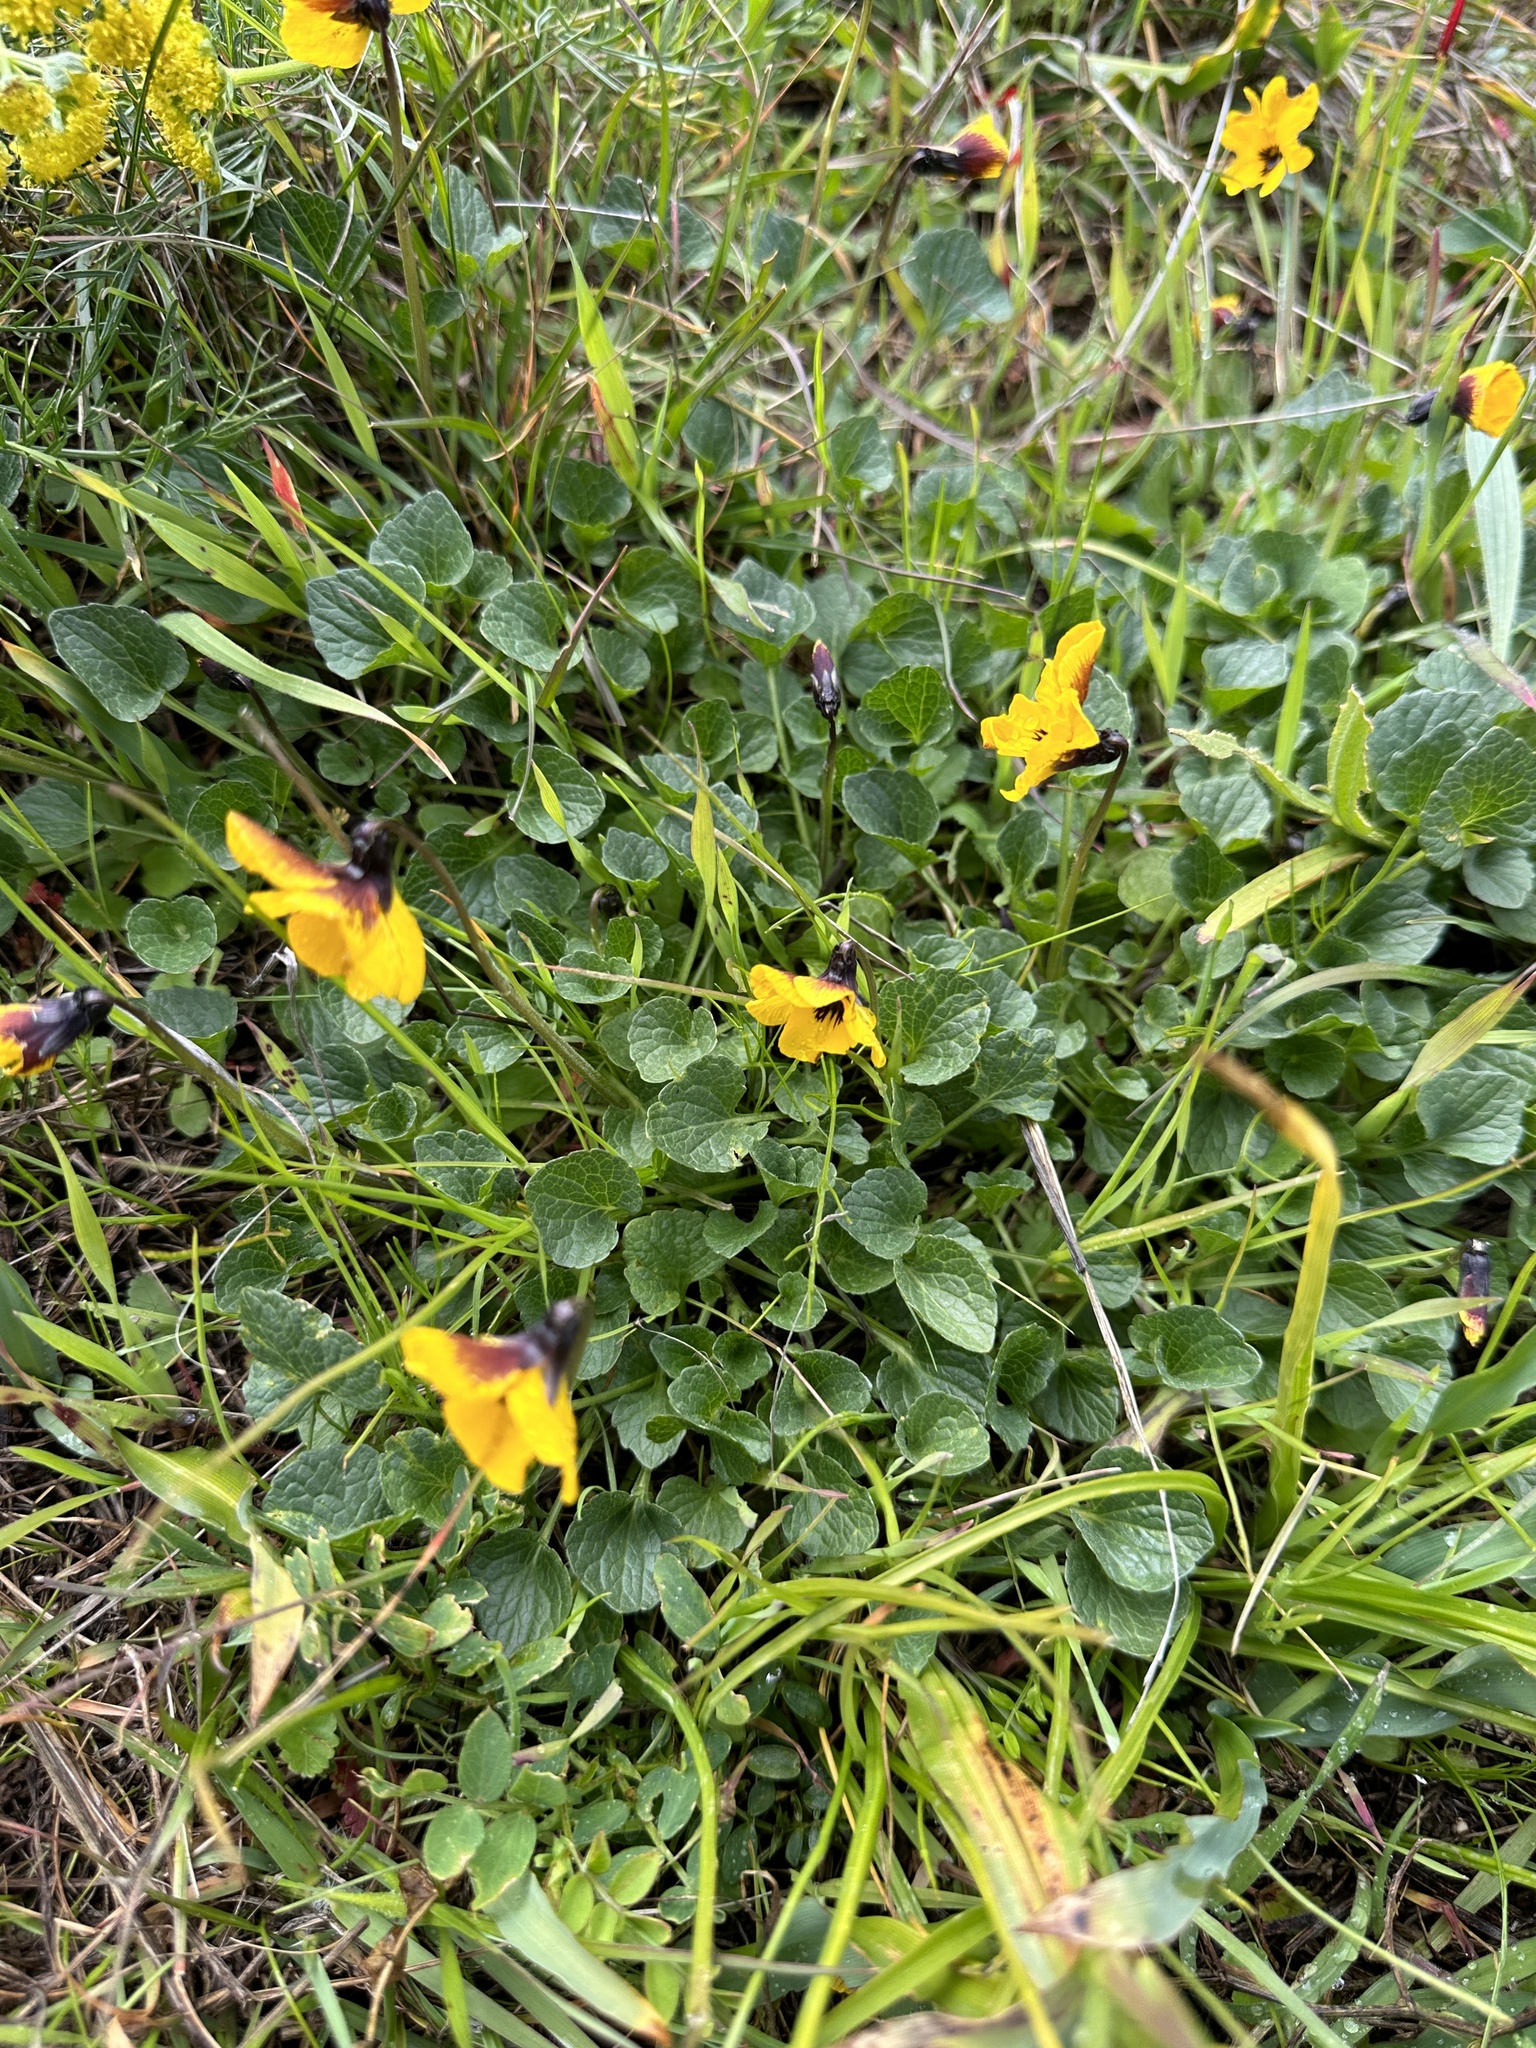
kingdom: Plantae
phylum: Tracheophyta
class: Magnoliopsida
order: Malpighiales
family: Violaceae
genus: Viola
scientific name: Viola pedunculata
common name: California golden violet
